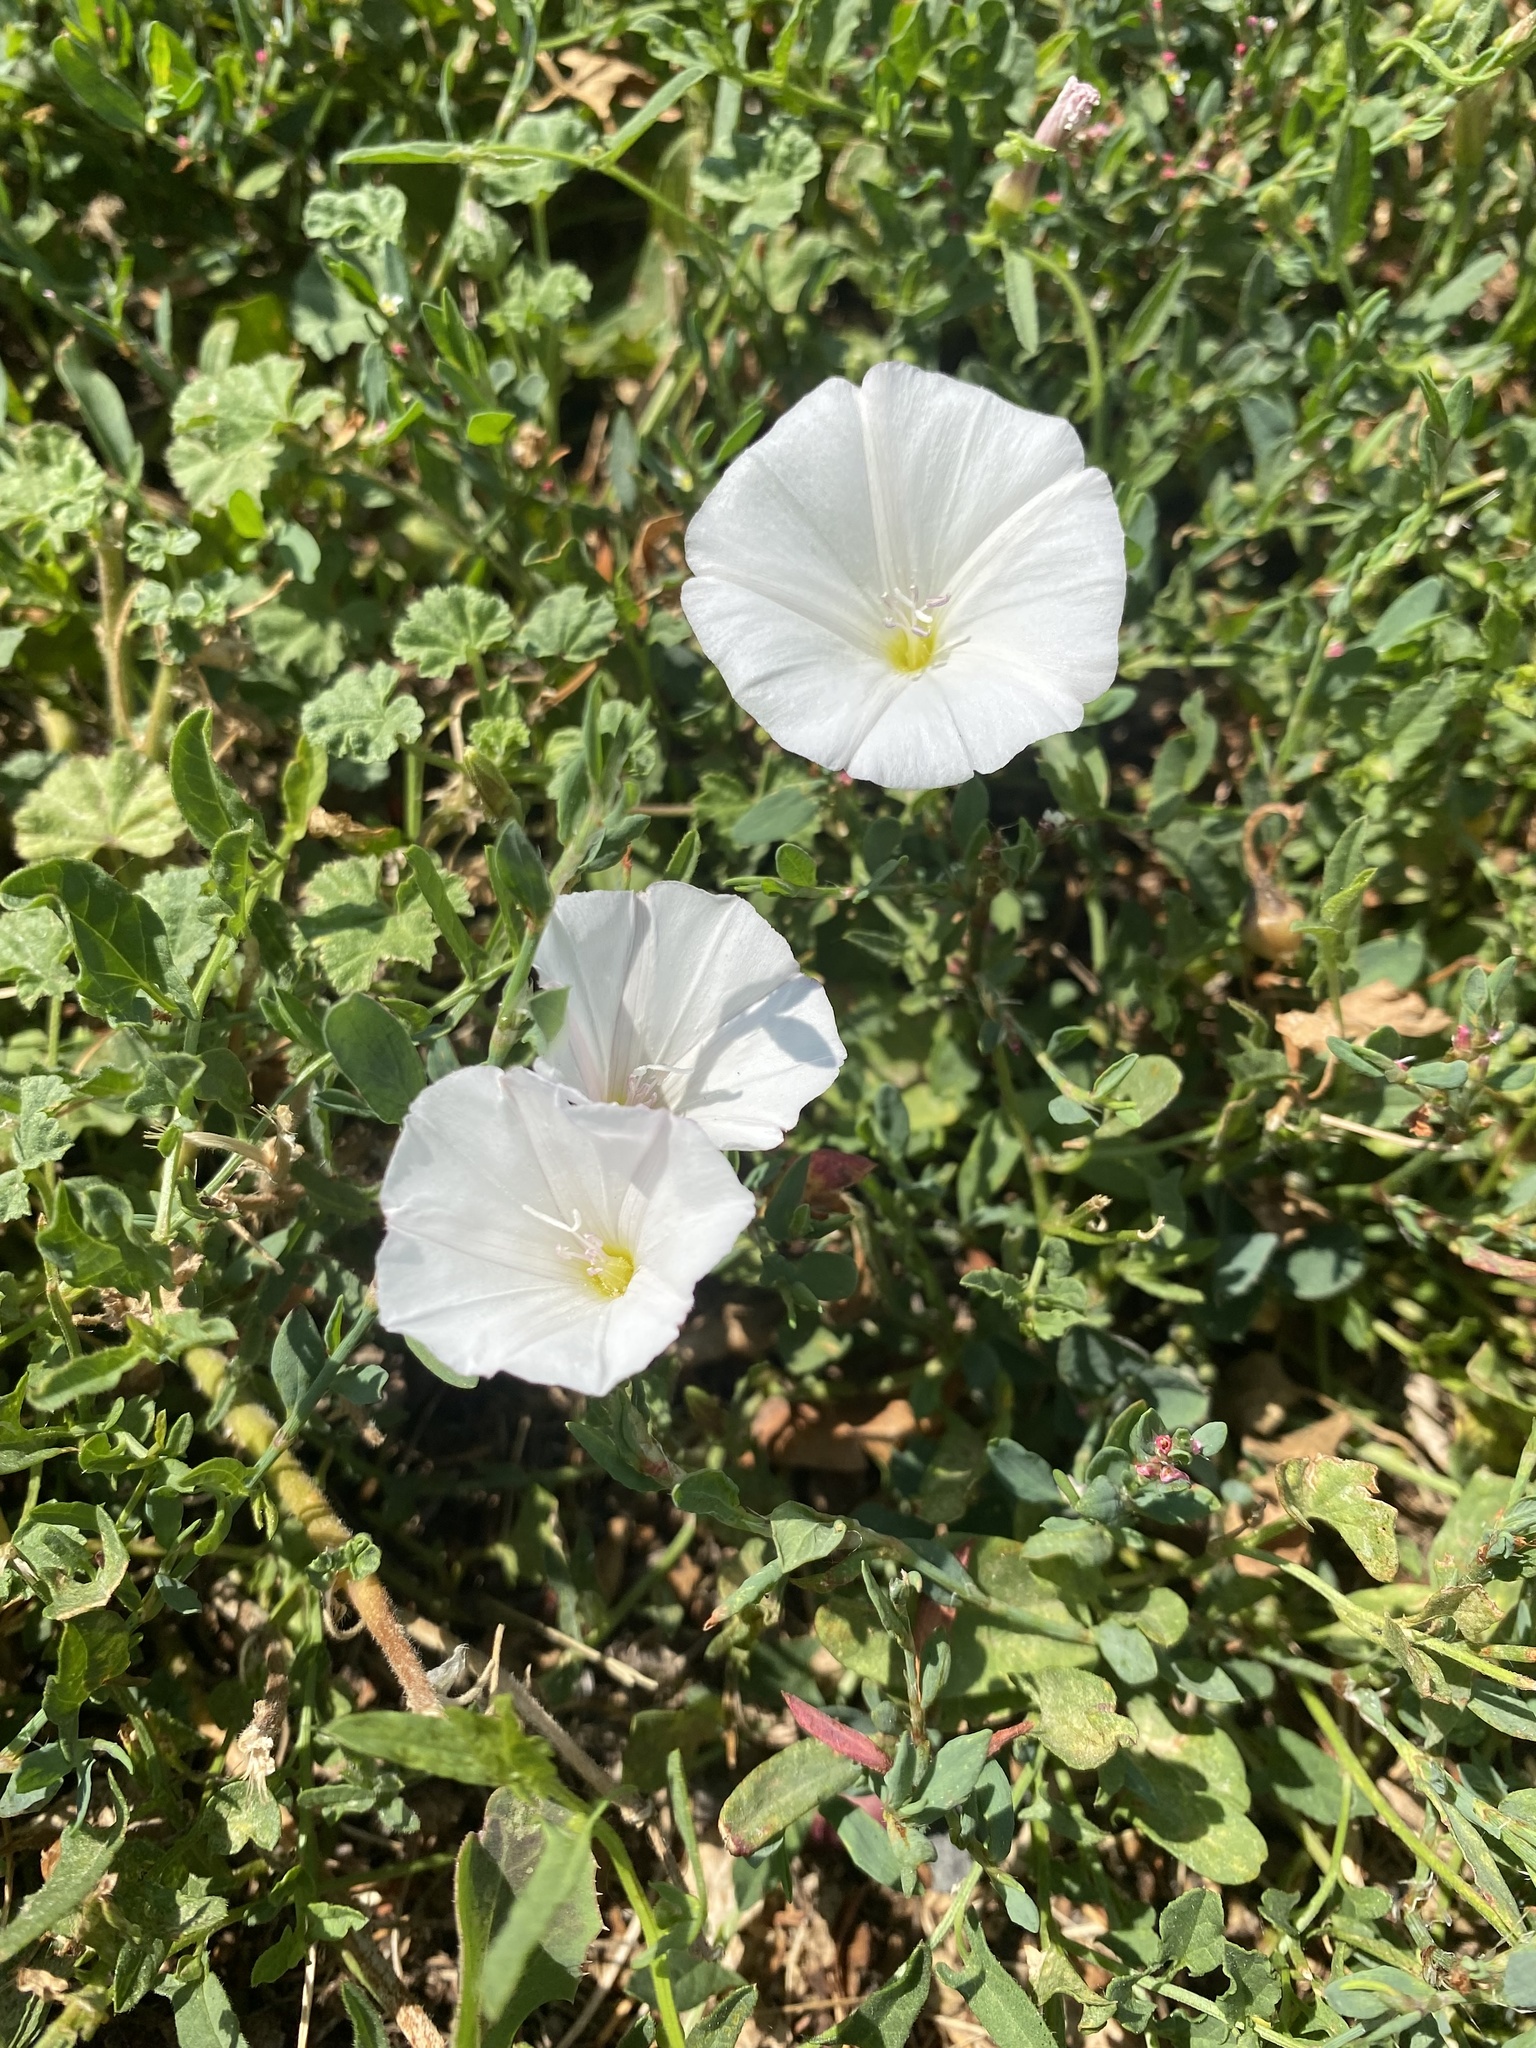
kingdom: Plantae
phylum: Tracheophyta
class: Magnoliopsida
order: Solanales
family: Convolvulaceae
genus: Convolvulus
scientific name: Convolvulus arvensis
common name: Field bindweed
